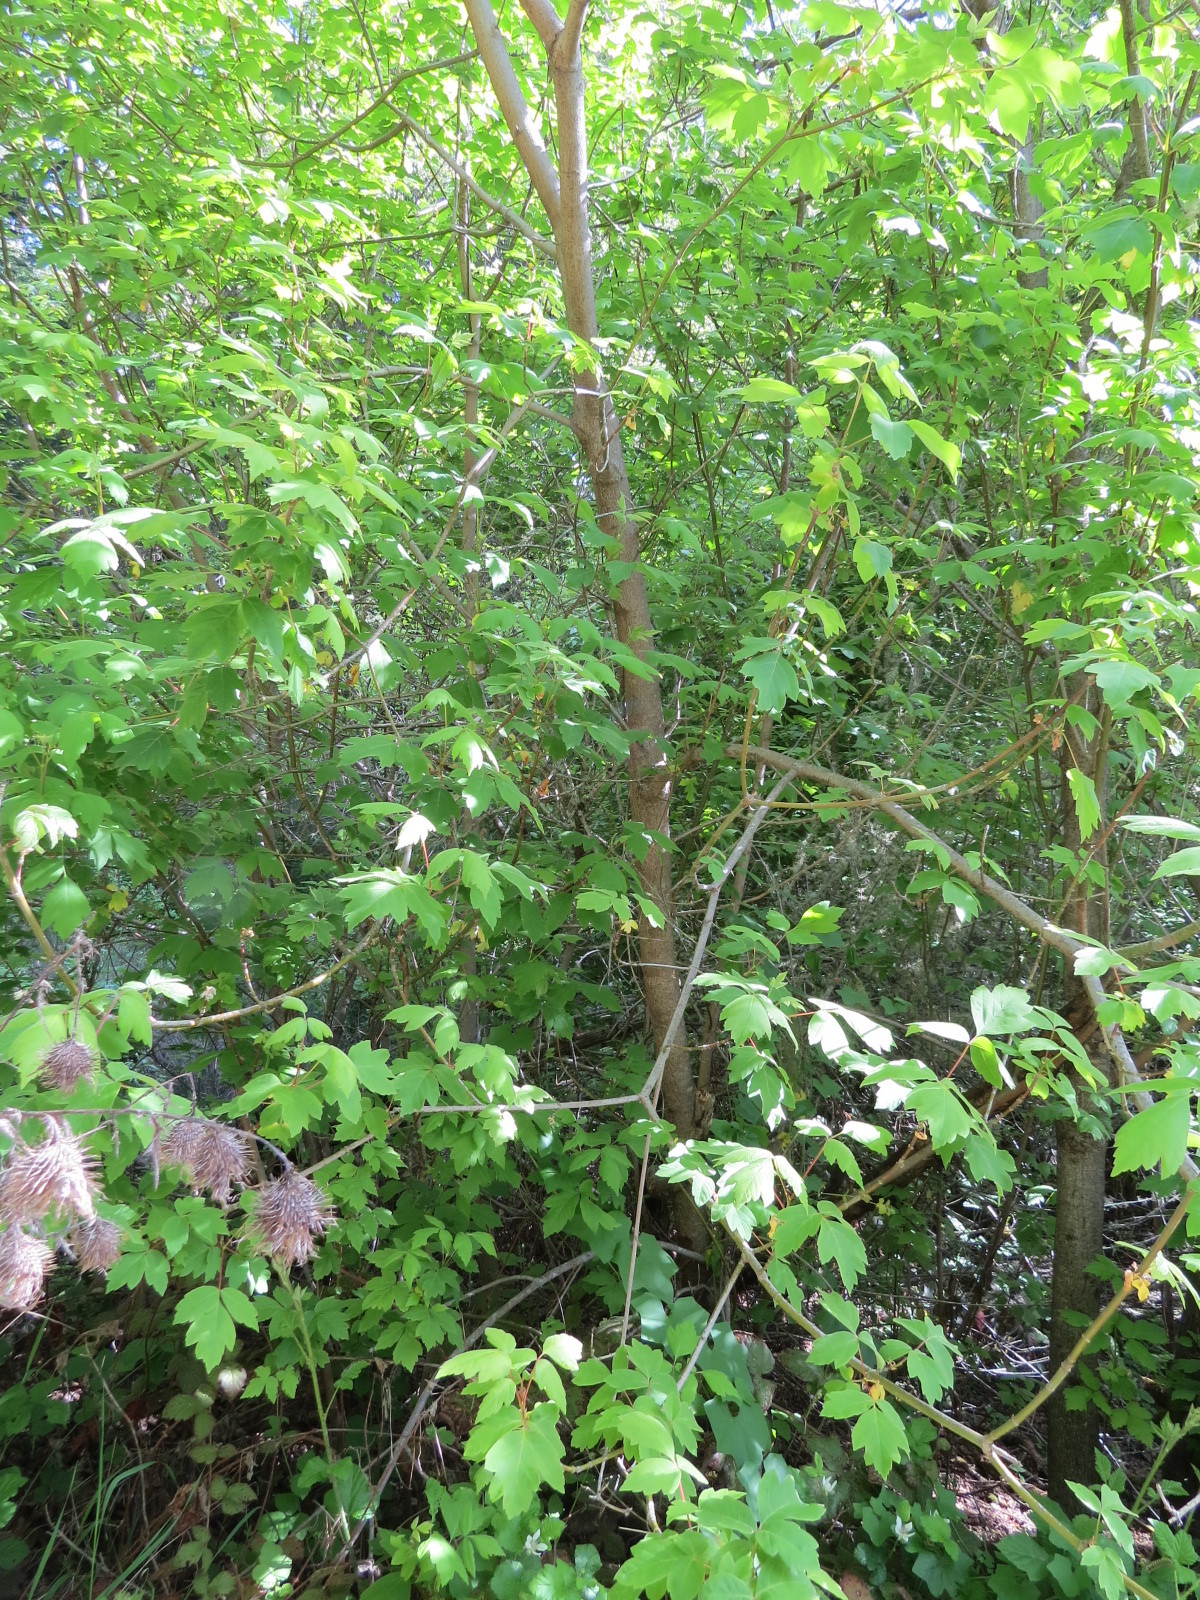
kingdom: Plantae
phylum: Tracheophyta
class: Magnoliopsida
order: Sapindales
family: Sapindaceae
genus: Acer
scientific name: Acer negundo
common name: Ashleaf maple
